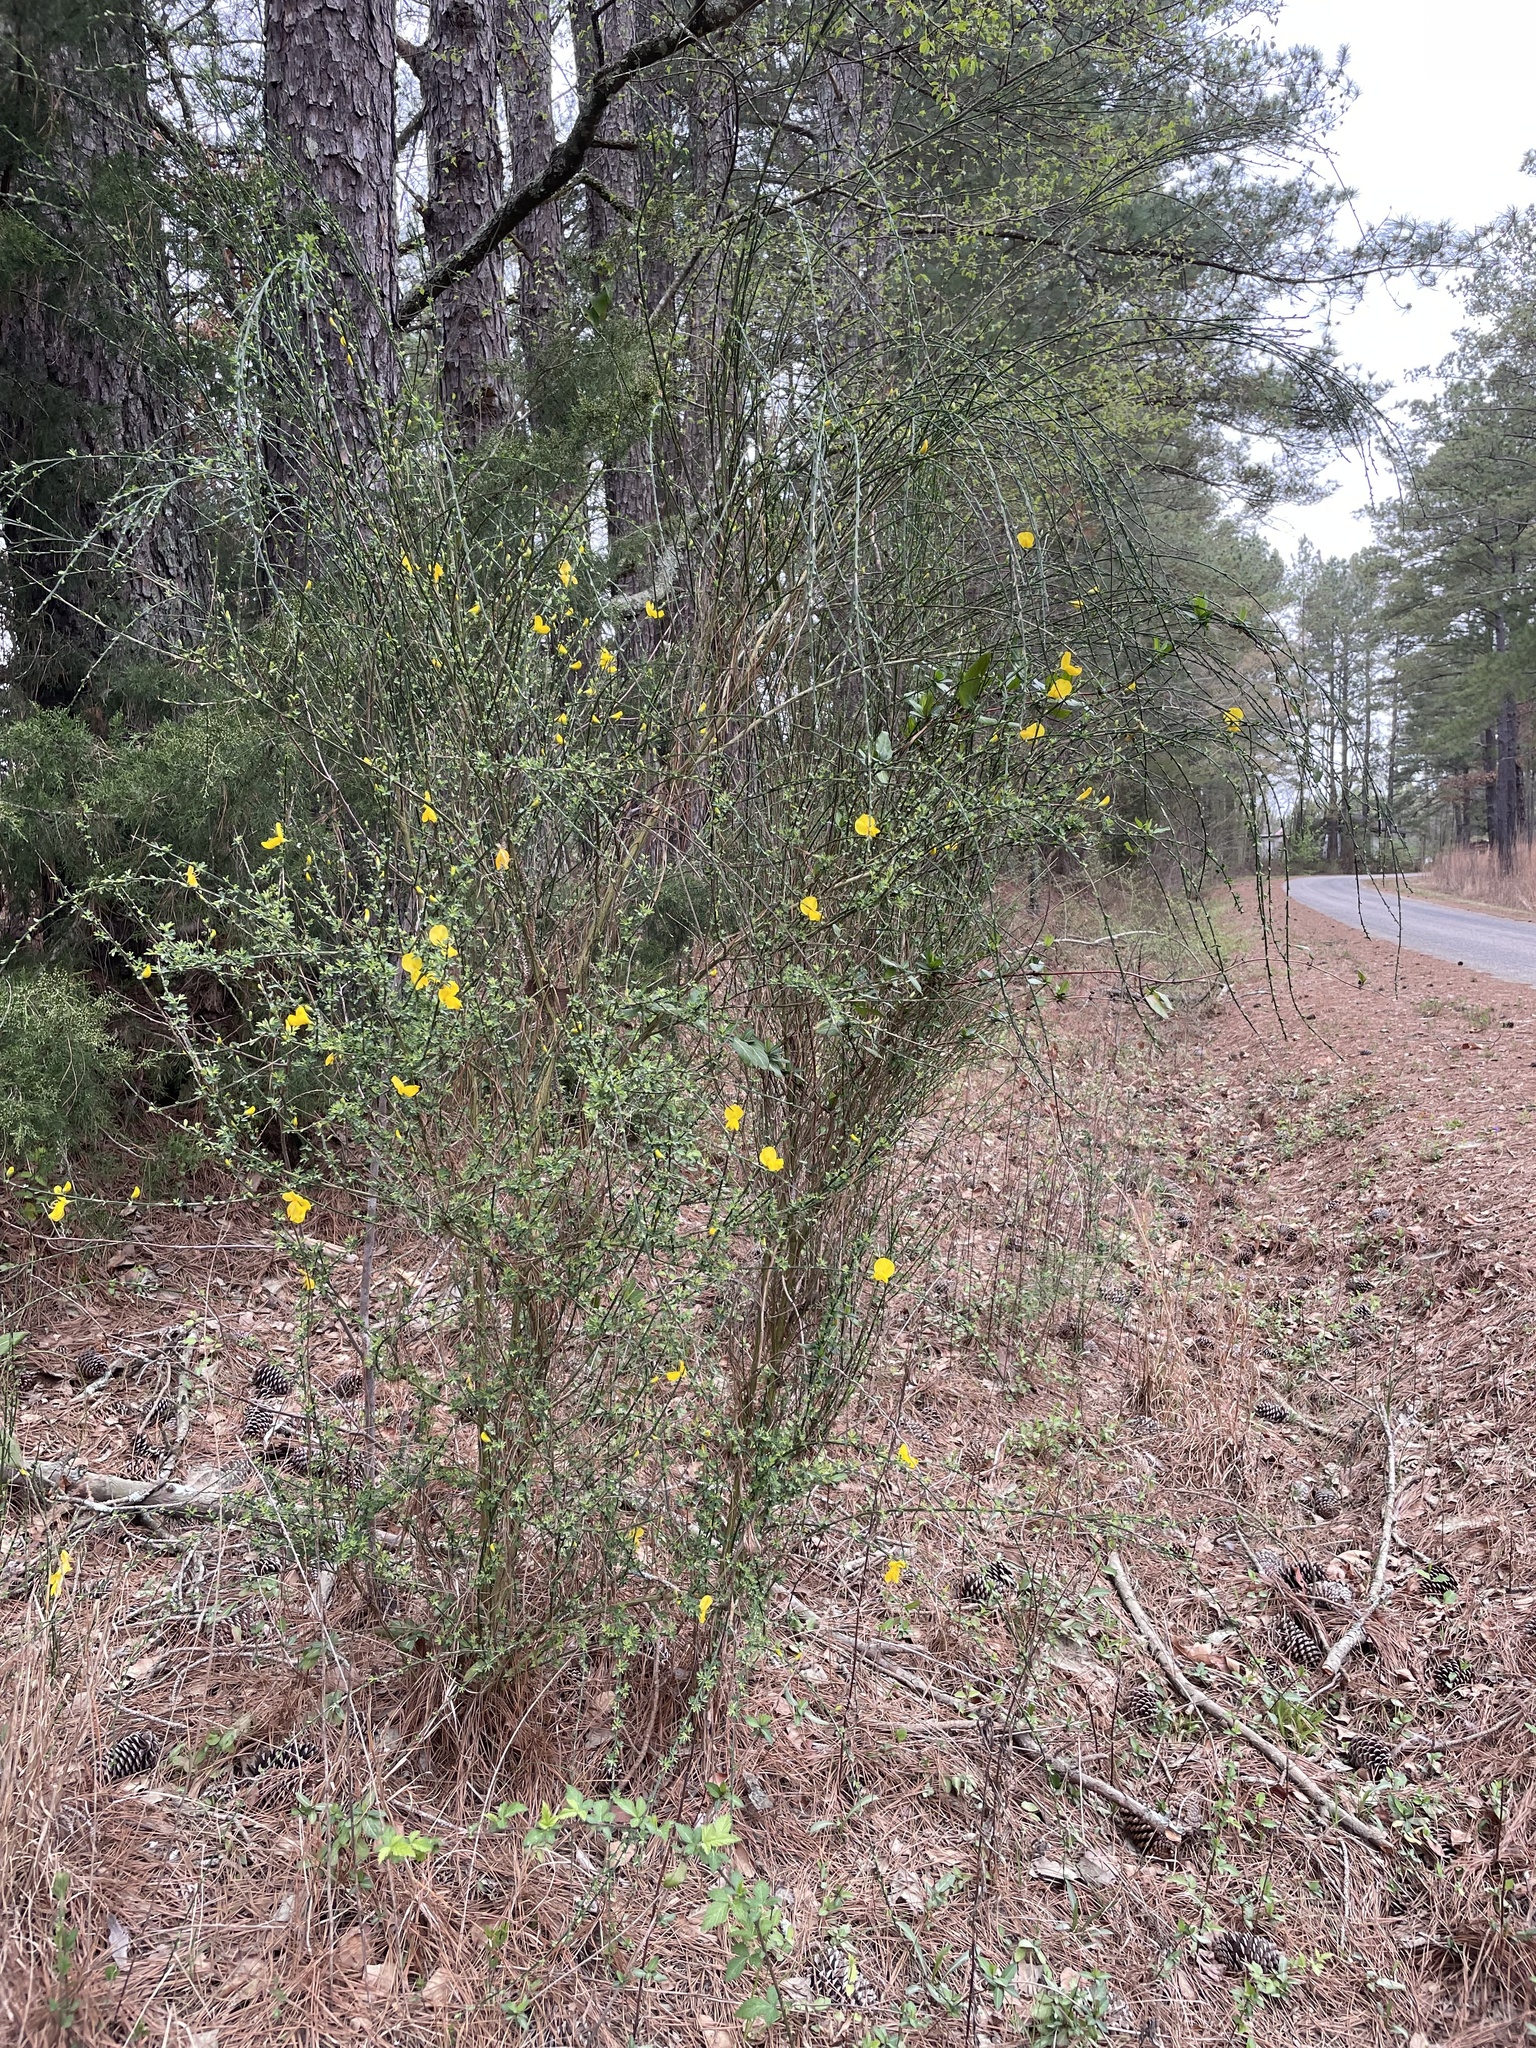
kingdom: Plantae
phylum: Tracheophyta
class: Magnoliopsida
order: Fabales
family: Fabaceae
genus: Cytisus
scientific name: Cytisus scoparius
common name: Scotch broom
